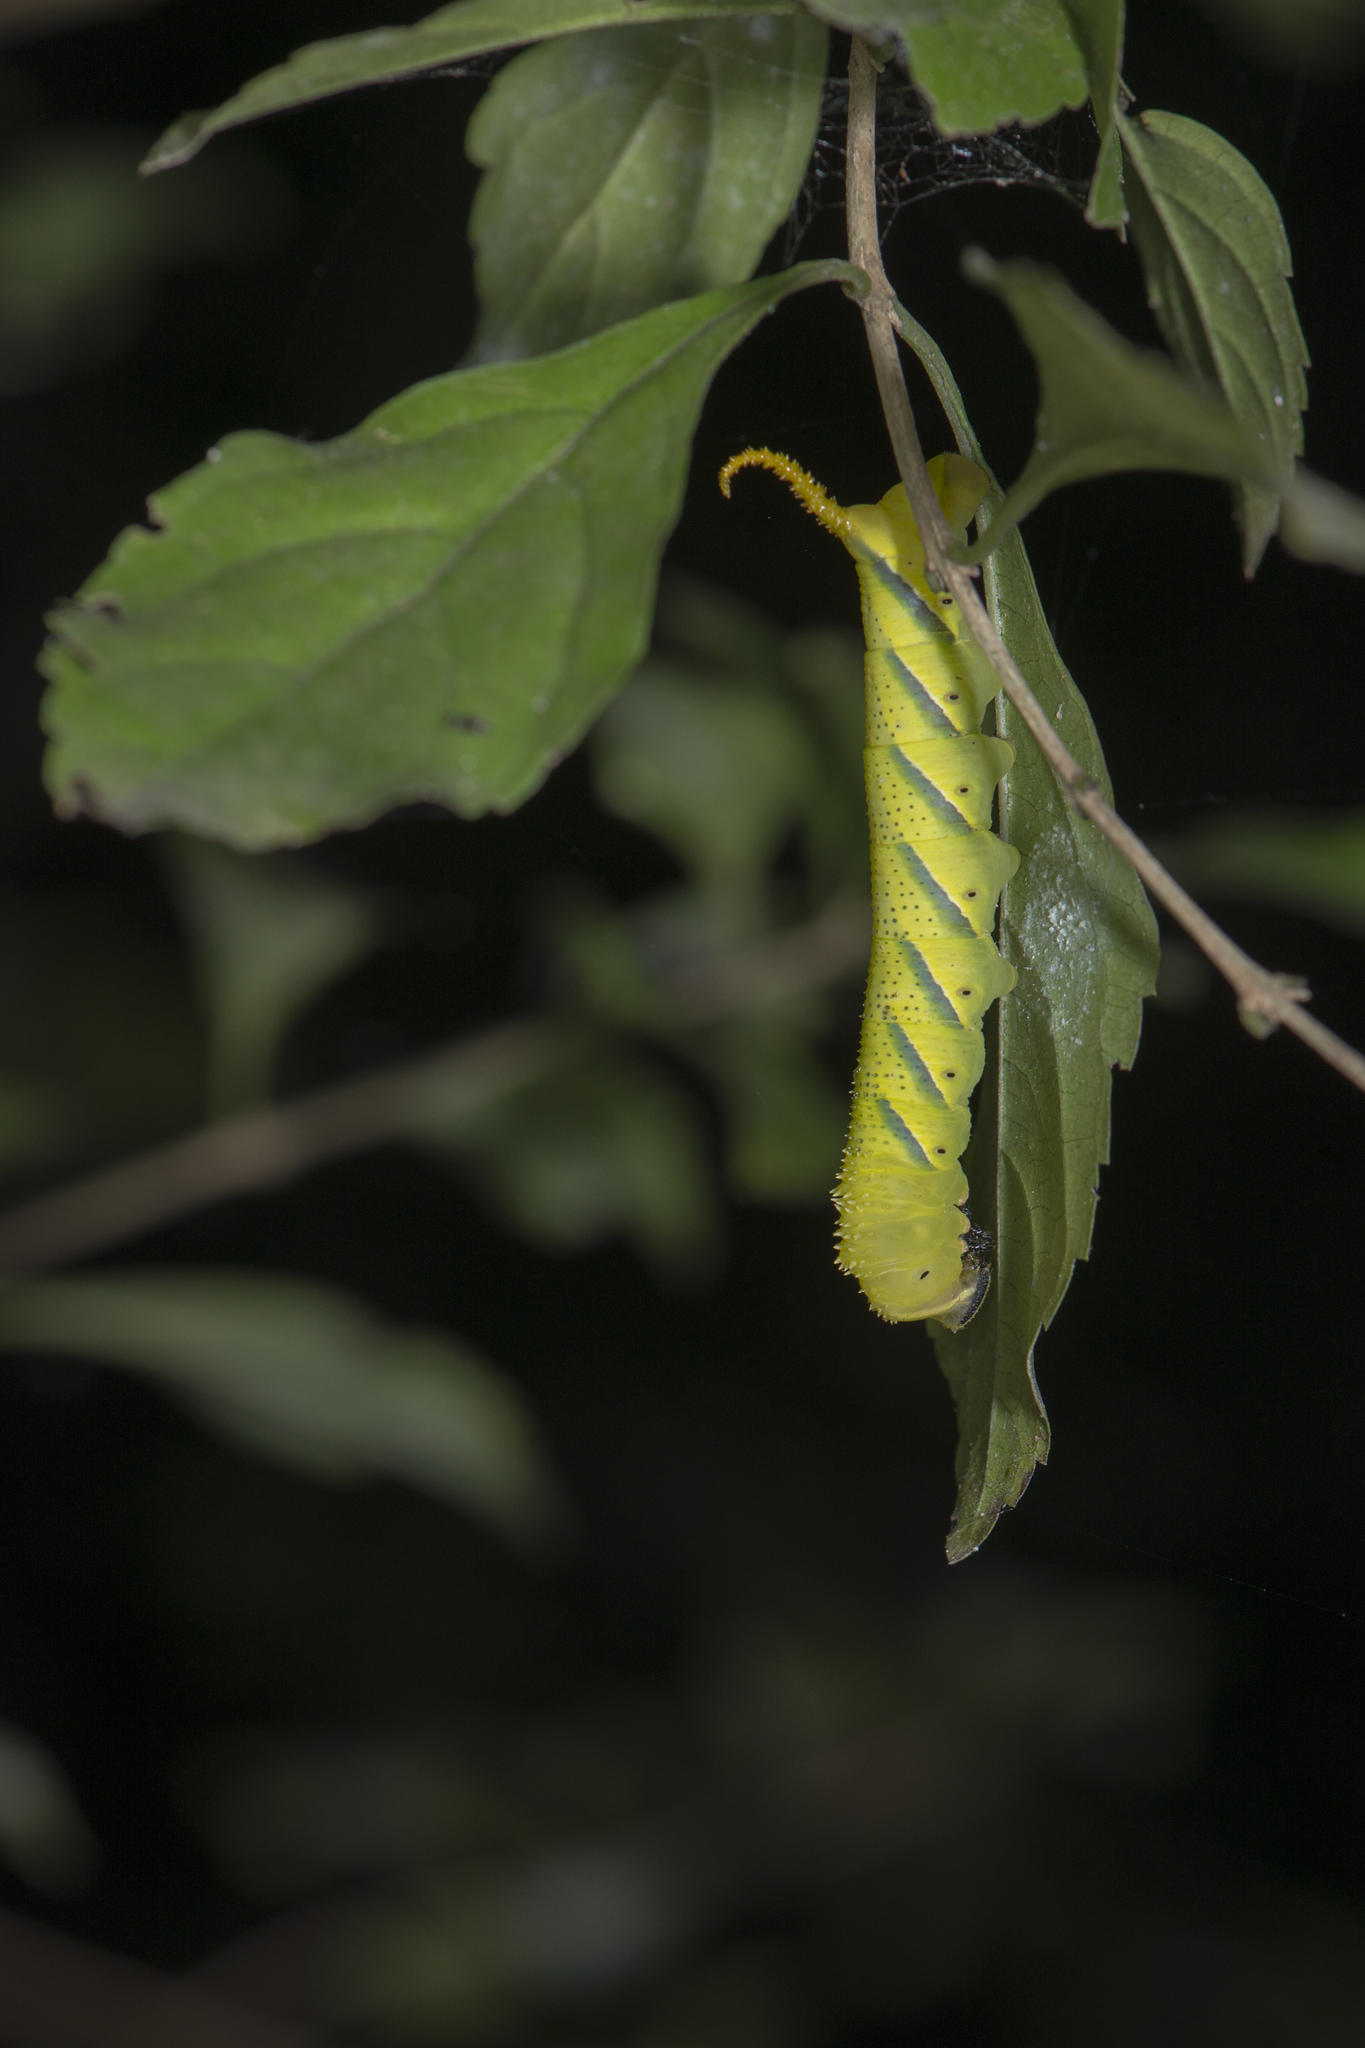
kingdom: Animalia
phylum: Arthropoda
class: Insecta
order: Lepidoptera
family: Sphingidae
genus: Acherontia
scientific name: Acherontia lachesis
